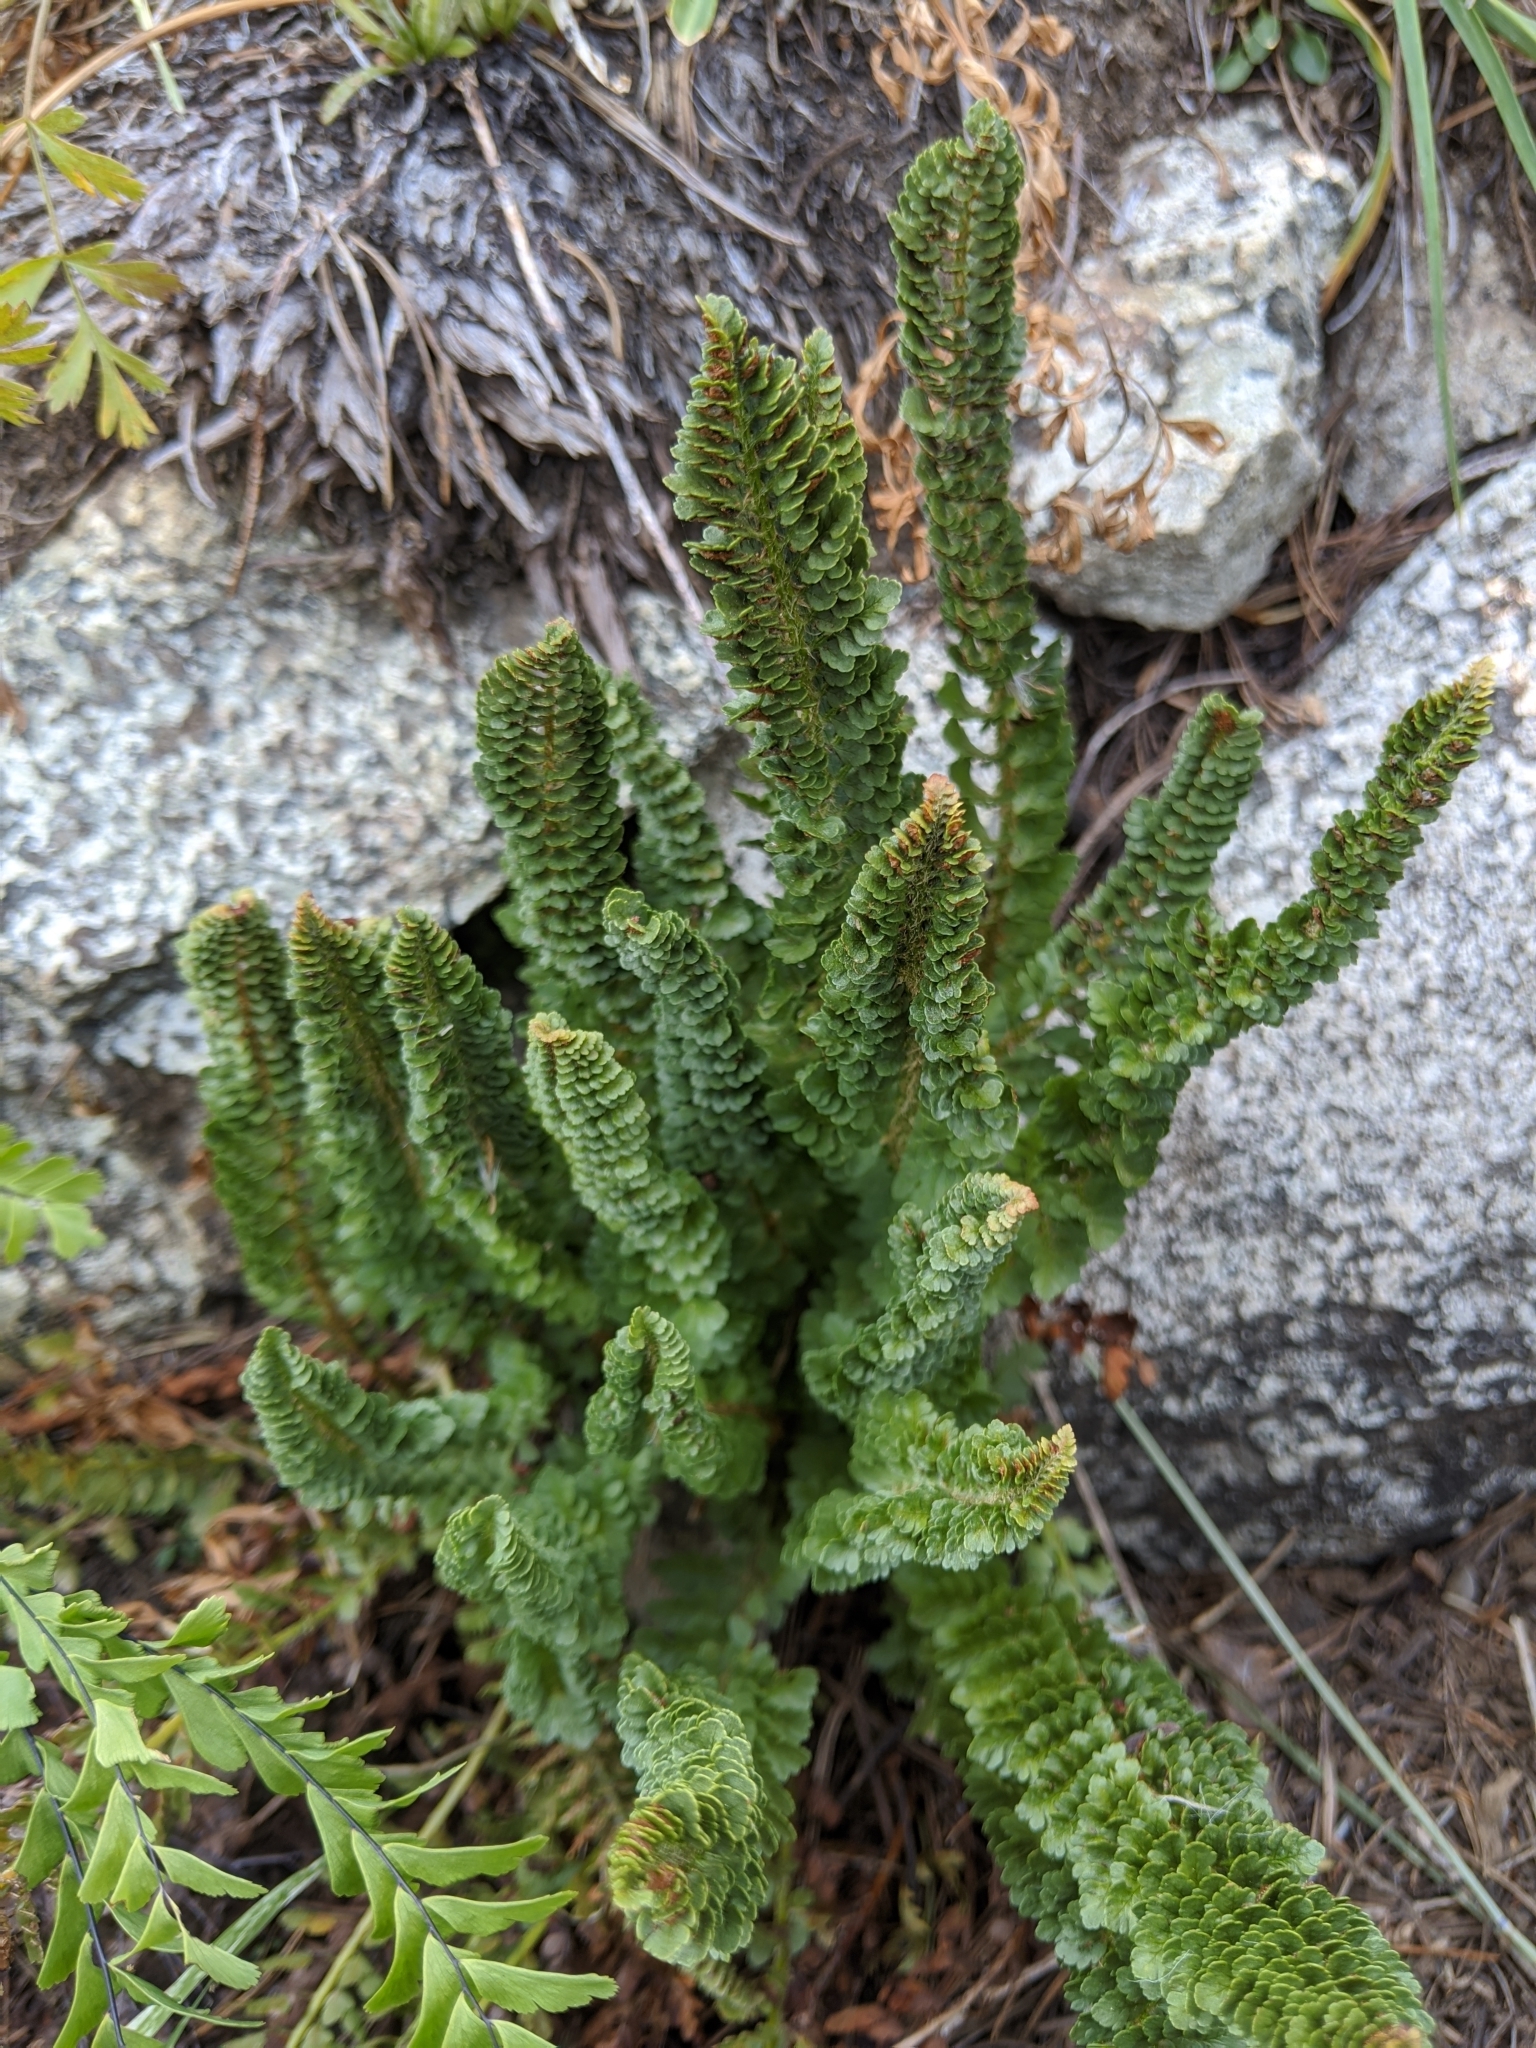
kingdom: Plantae
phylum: Tracheophyta
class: Polypodiopsida
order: Polypodiales
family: Dryopteridaceae
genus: Polystichum
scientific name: Polystichum lemmonii
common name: Lemmon's holly fern
